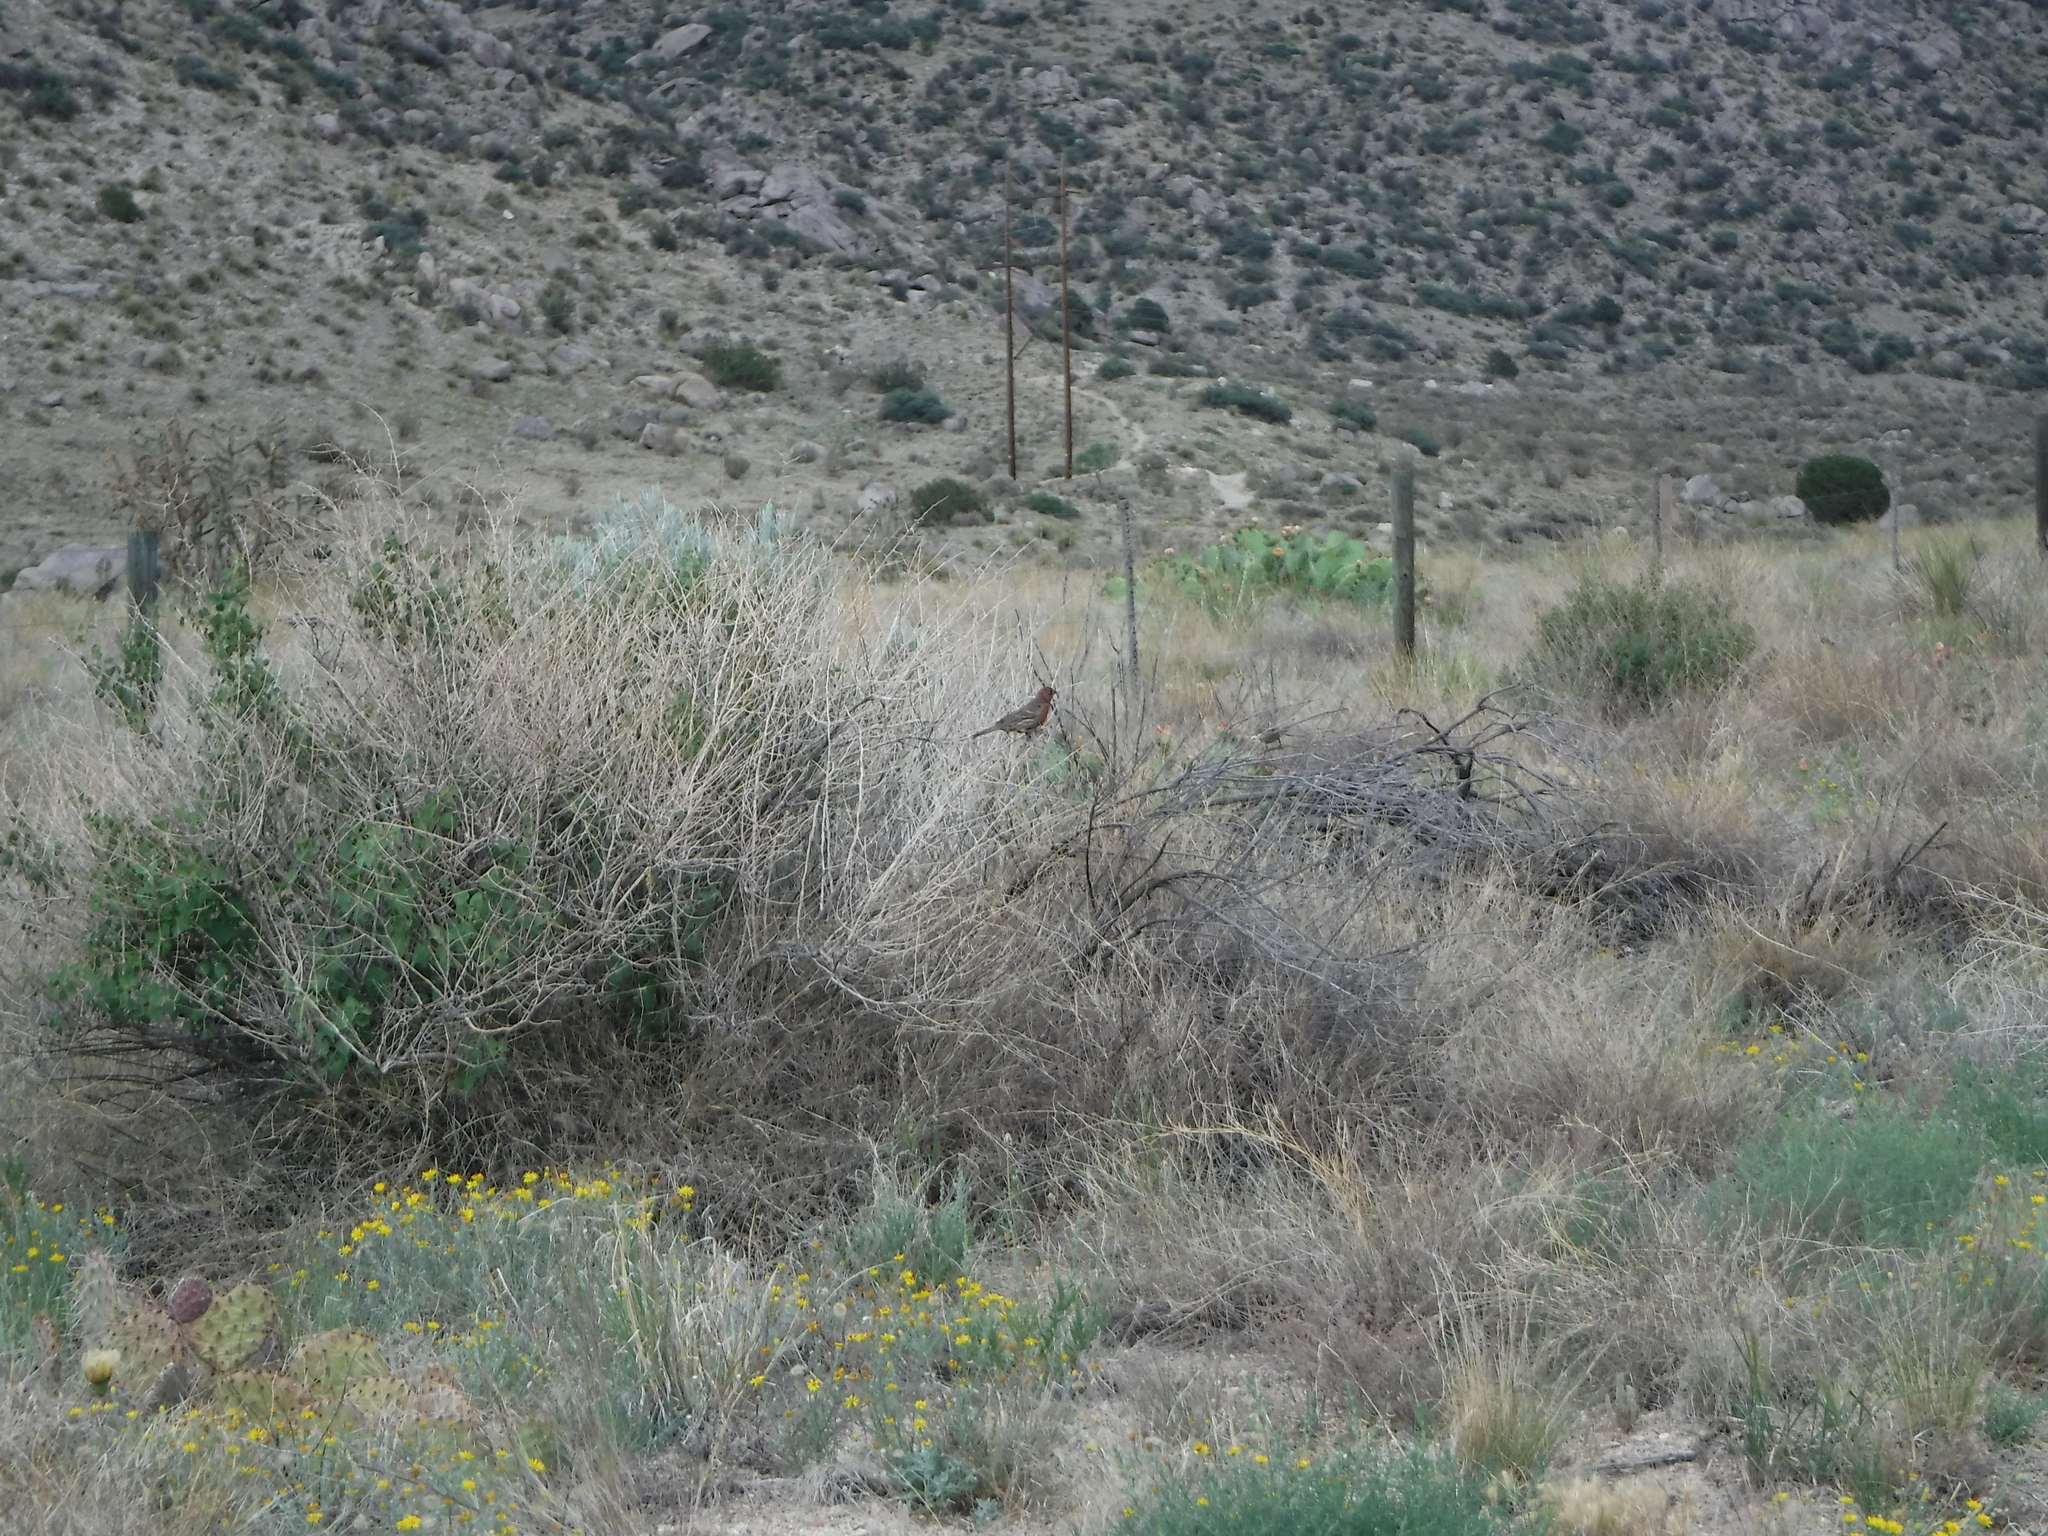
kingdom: Animalia
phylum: Chordata
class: Aves
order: Passeriformes
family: Fringillidae
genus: Haemorhous
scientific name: Haemorhous mexicanus
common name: House finch
